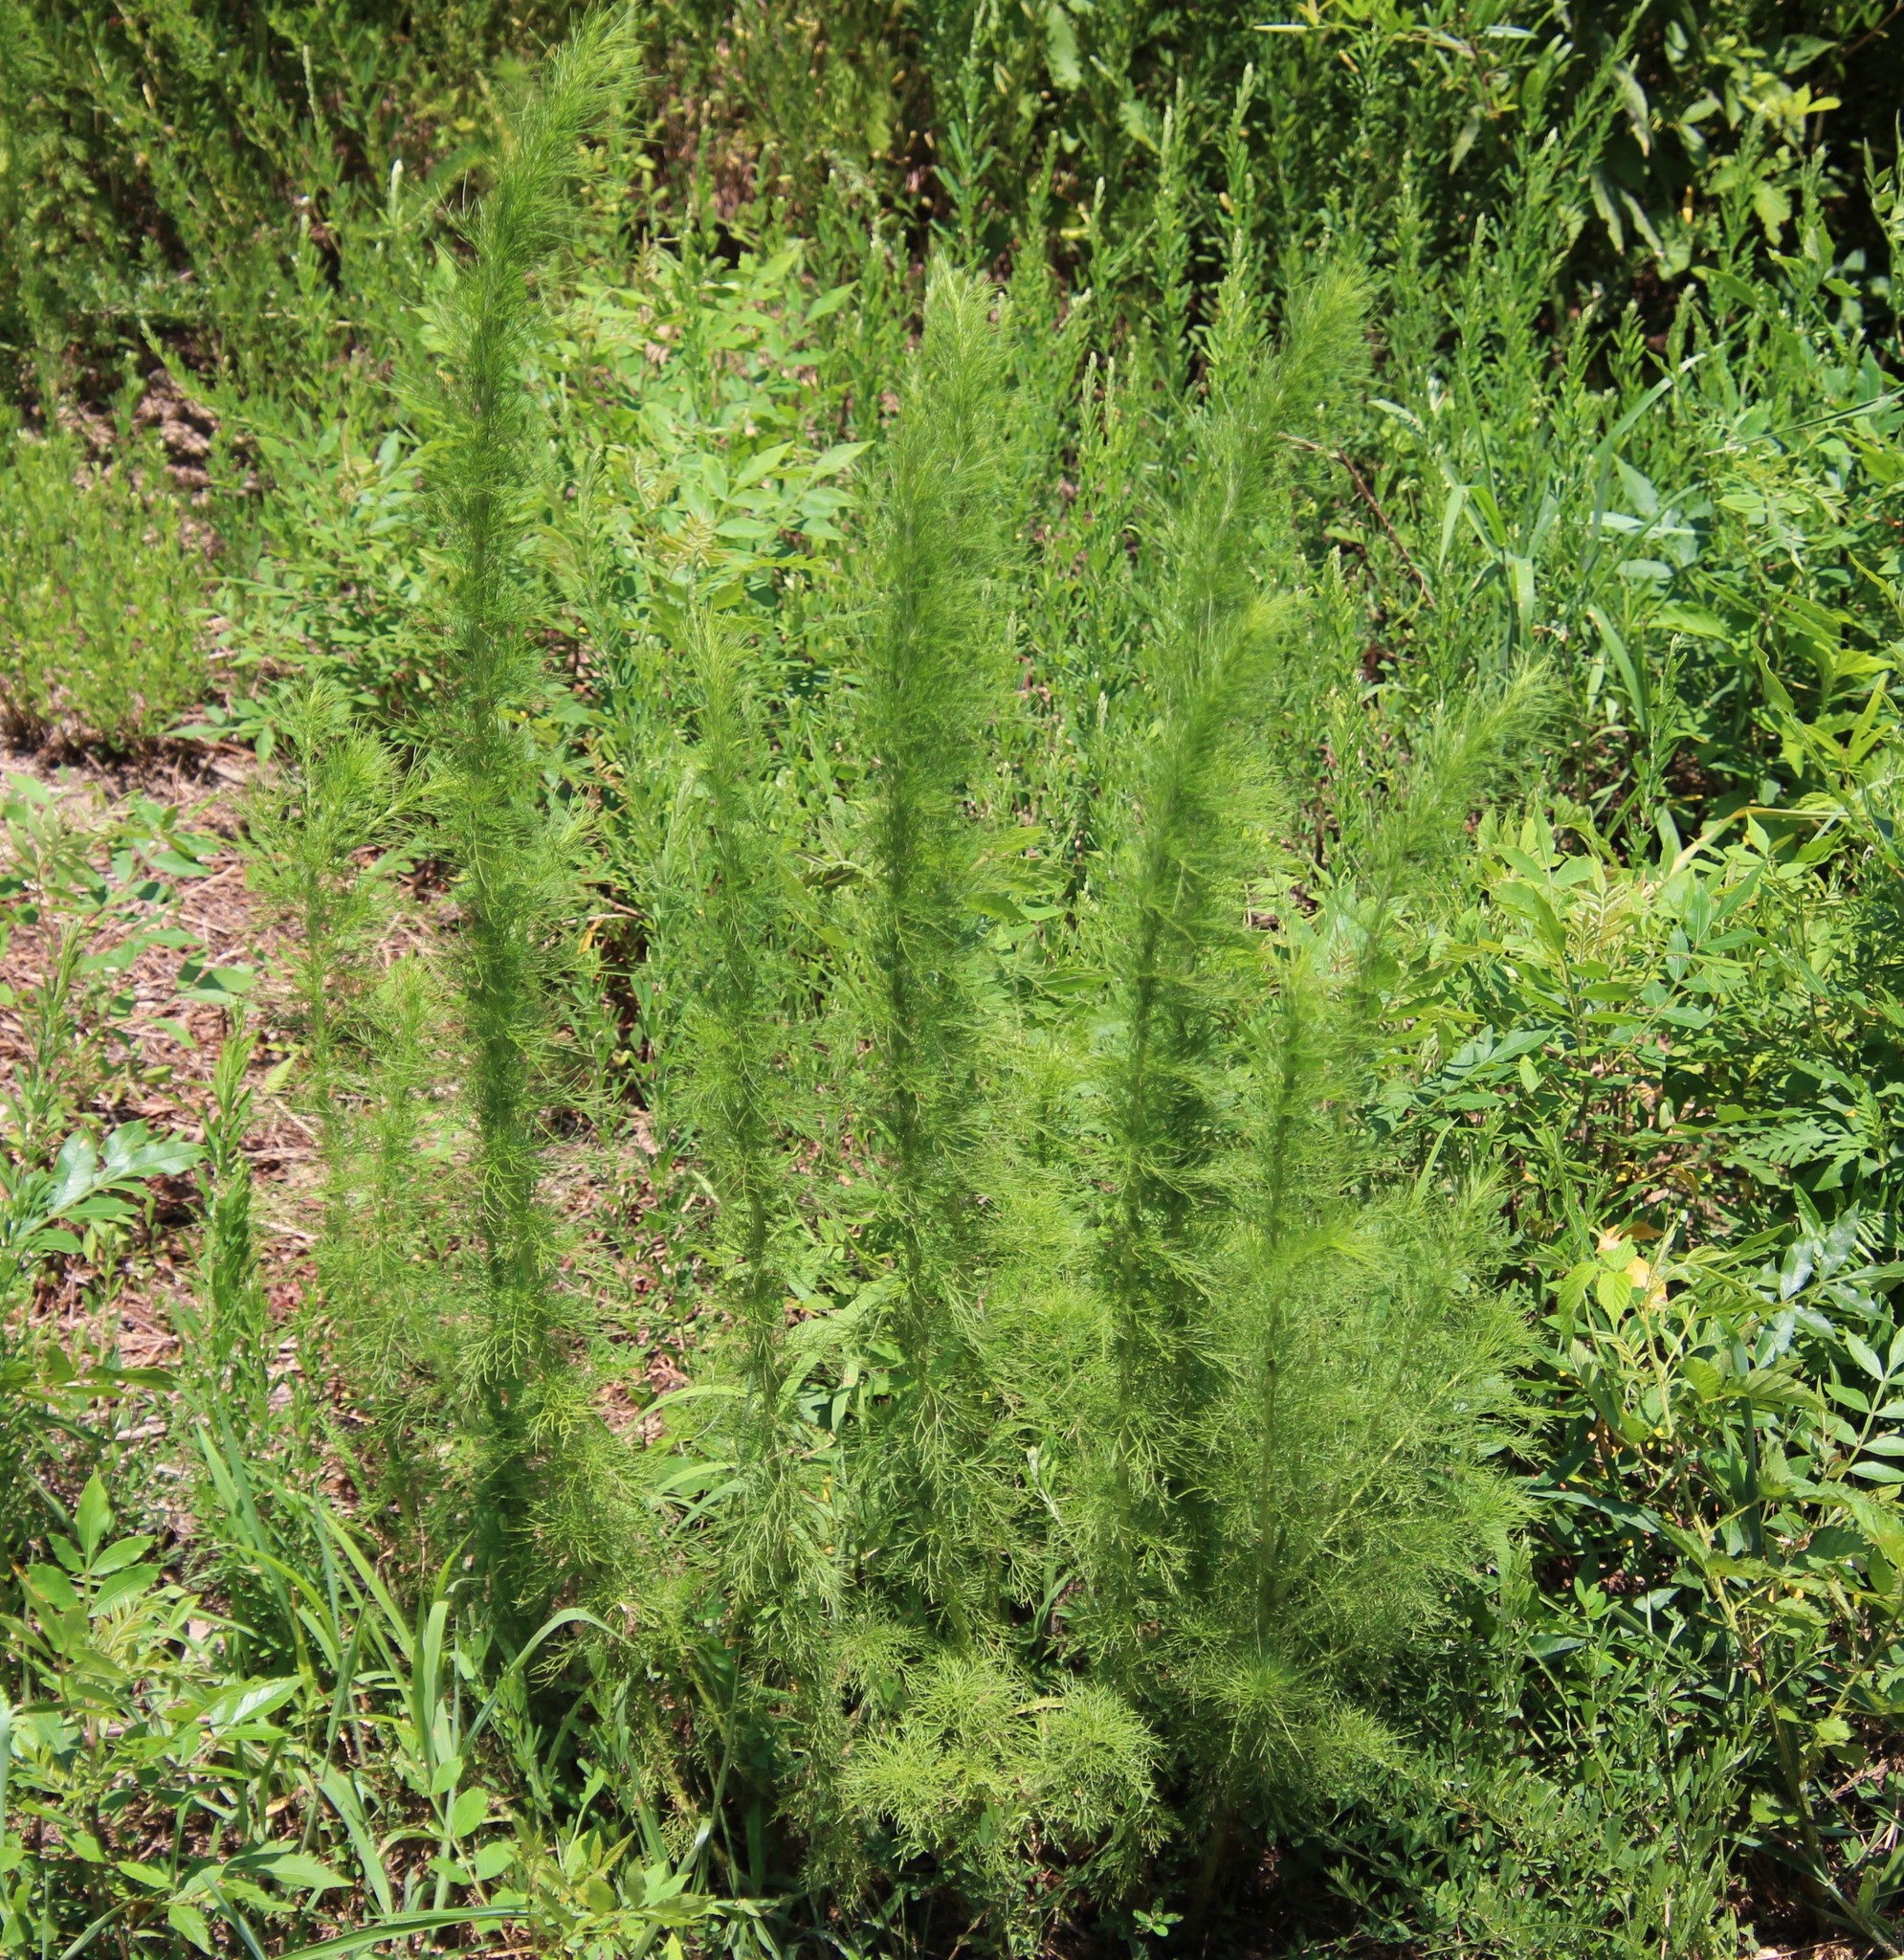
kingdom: Plantae
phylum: Tracheophyta
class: Magnoliopsida
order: Asterales
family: Asteraceae
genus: Eupatorium
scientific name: Eupatorium capillifolium
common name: Dog-fennel
